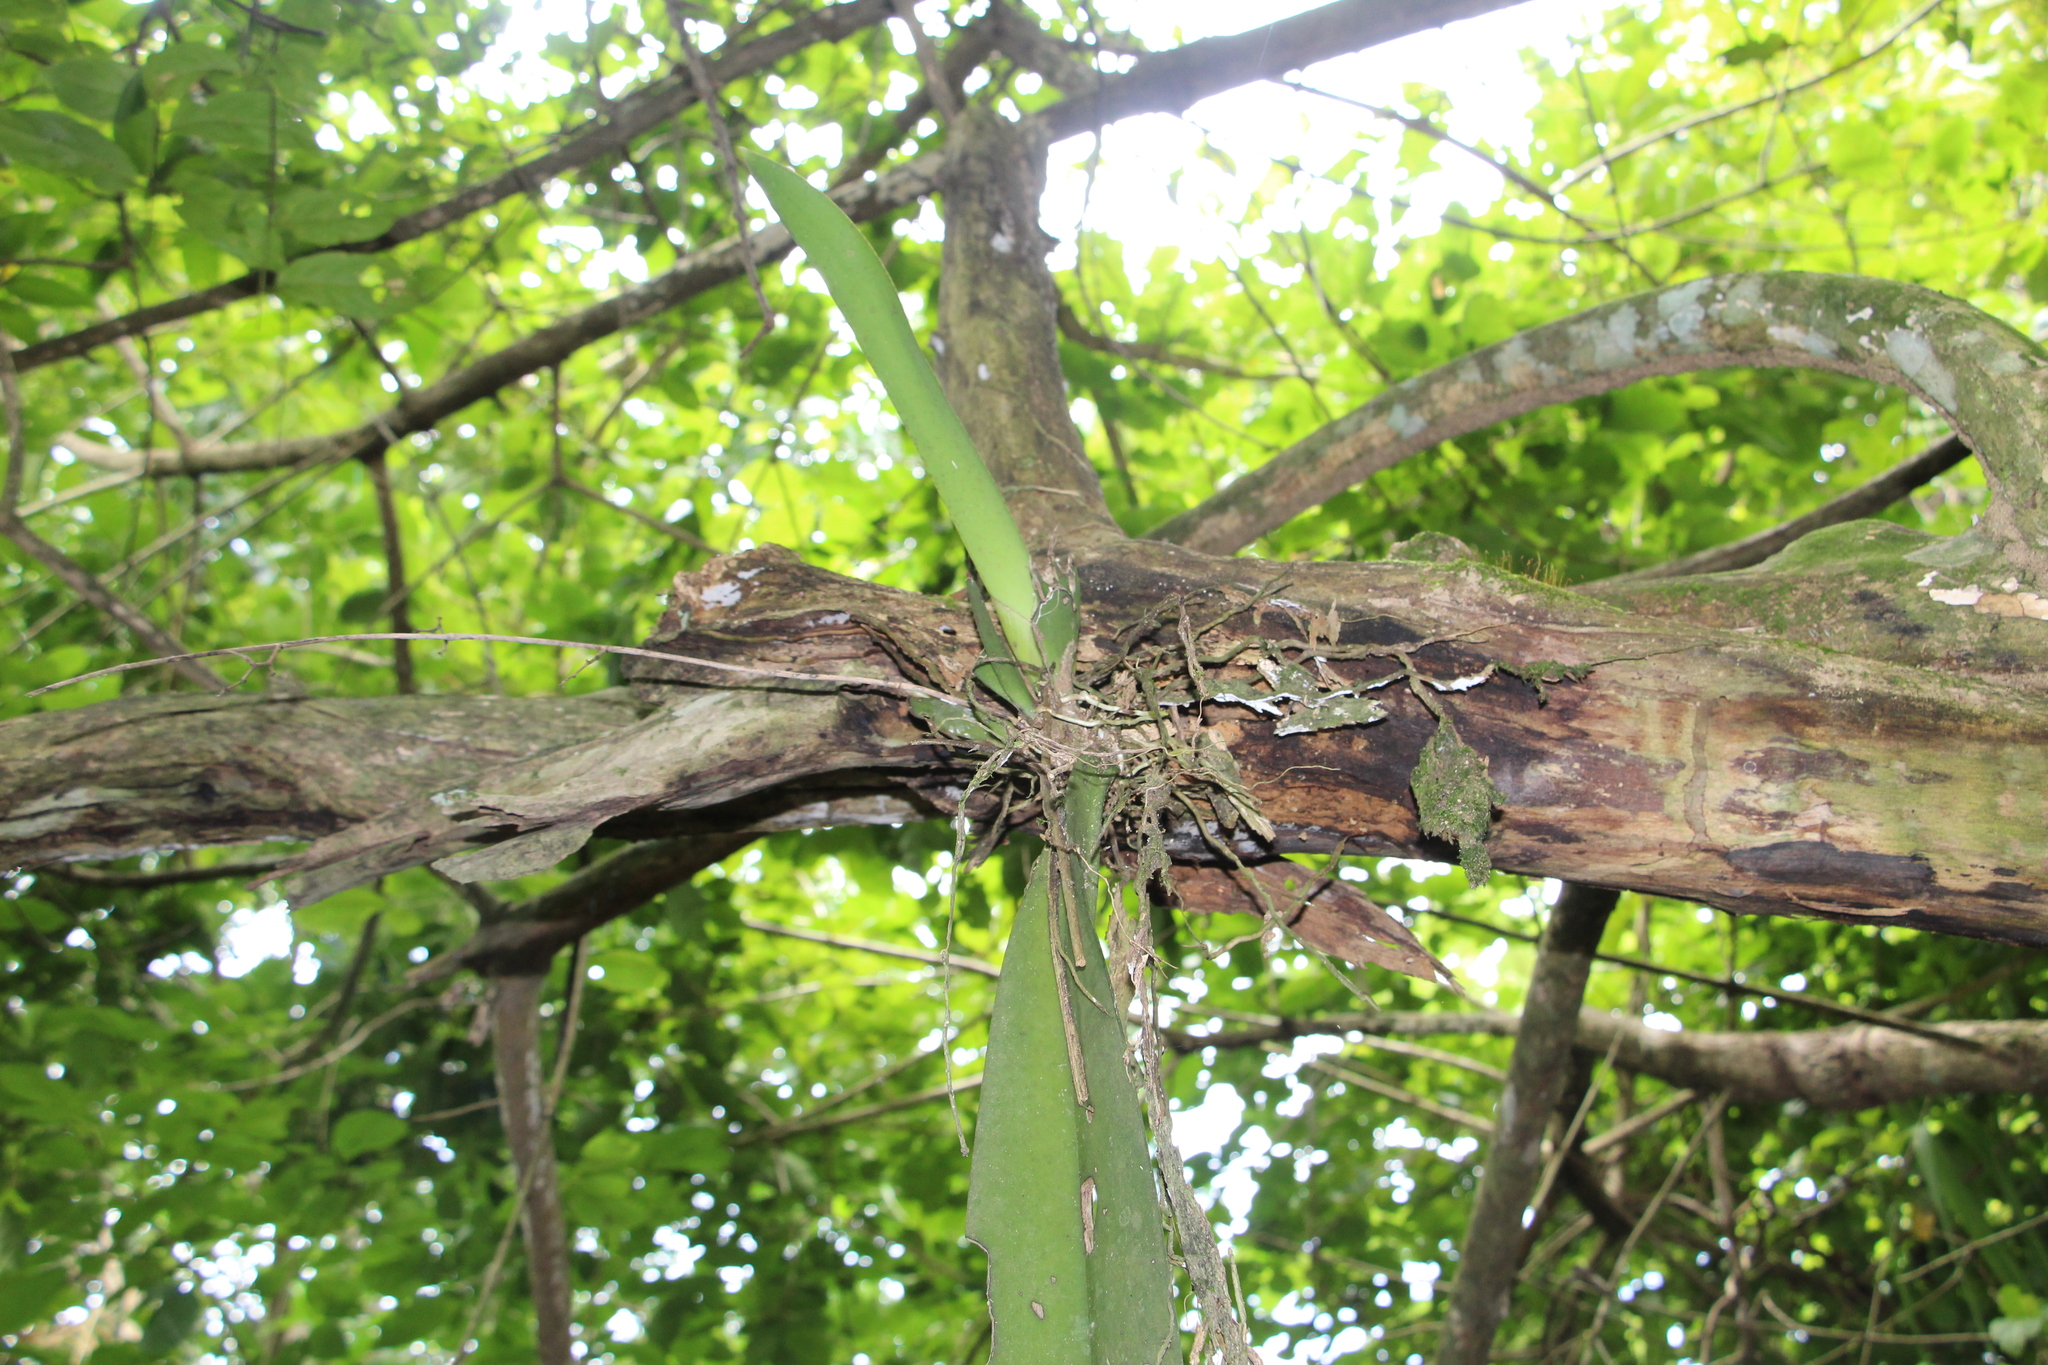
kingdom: Plantae
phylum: Tracheophyta
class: Liliopsida
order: Asparagales
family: Orchidaceae
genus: Trichocentrum
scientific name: Trichocentrum carthagenense
